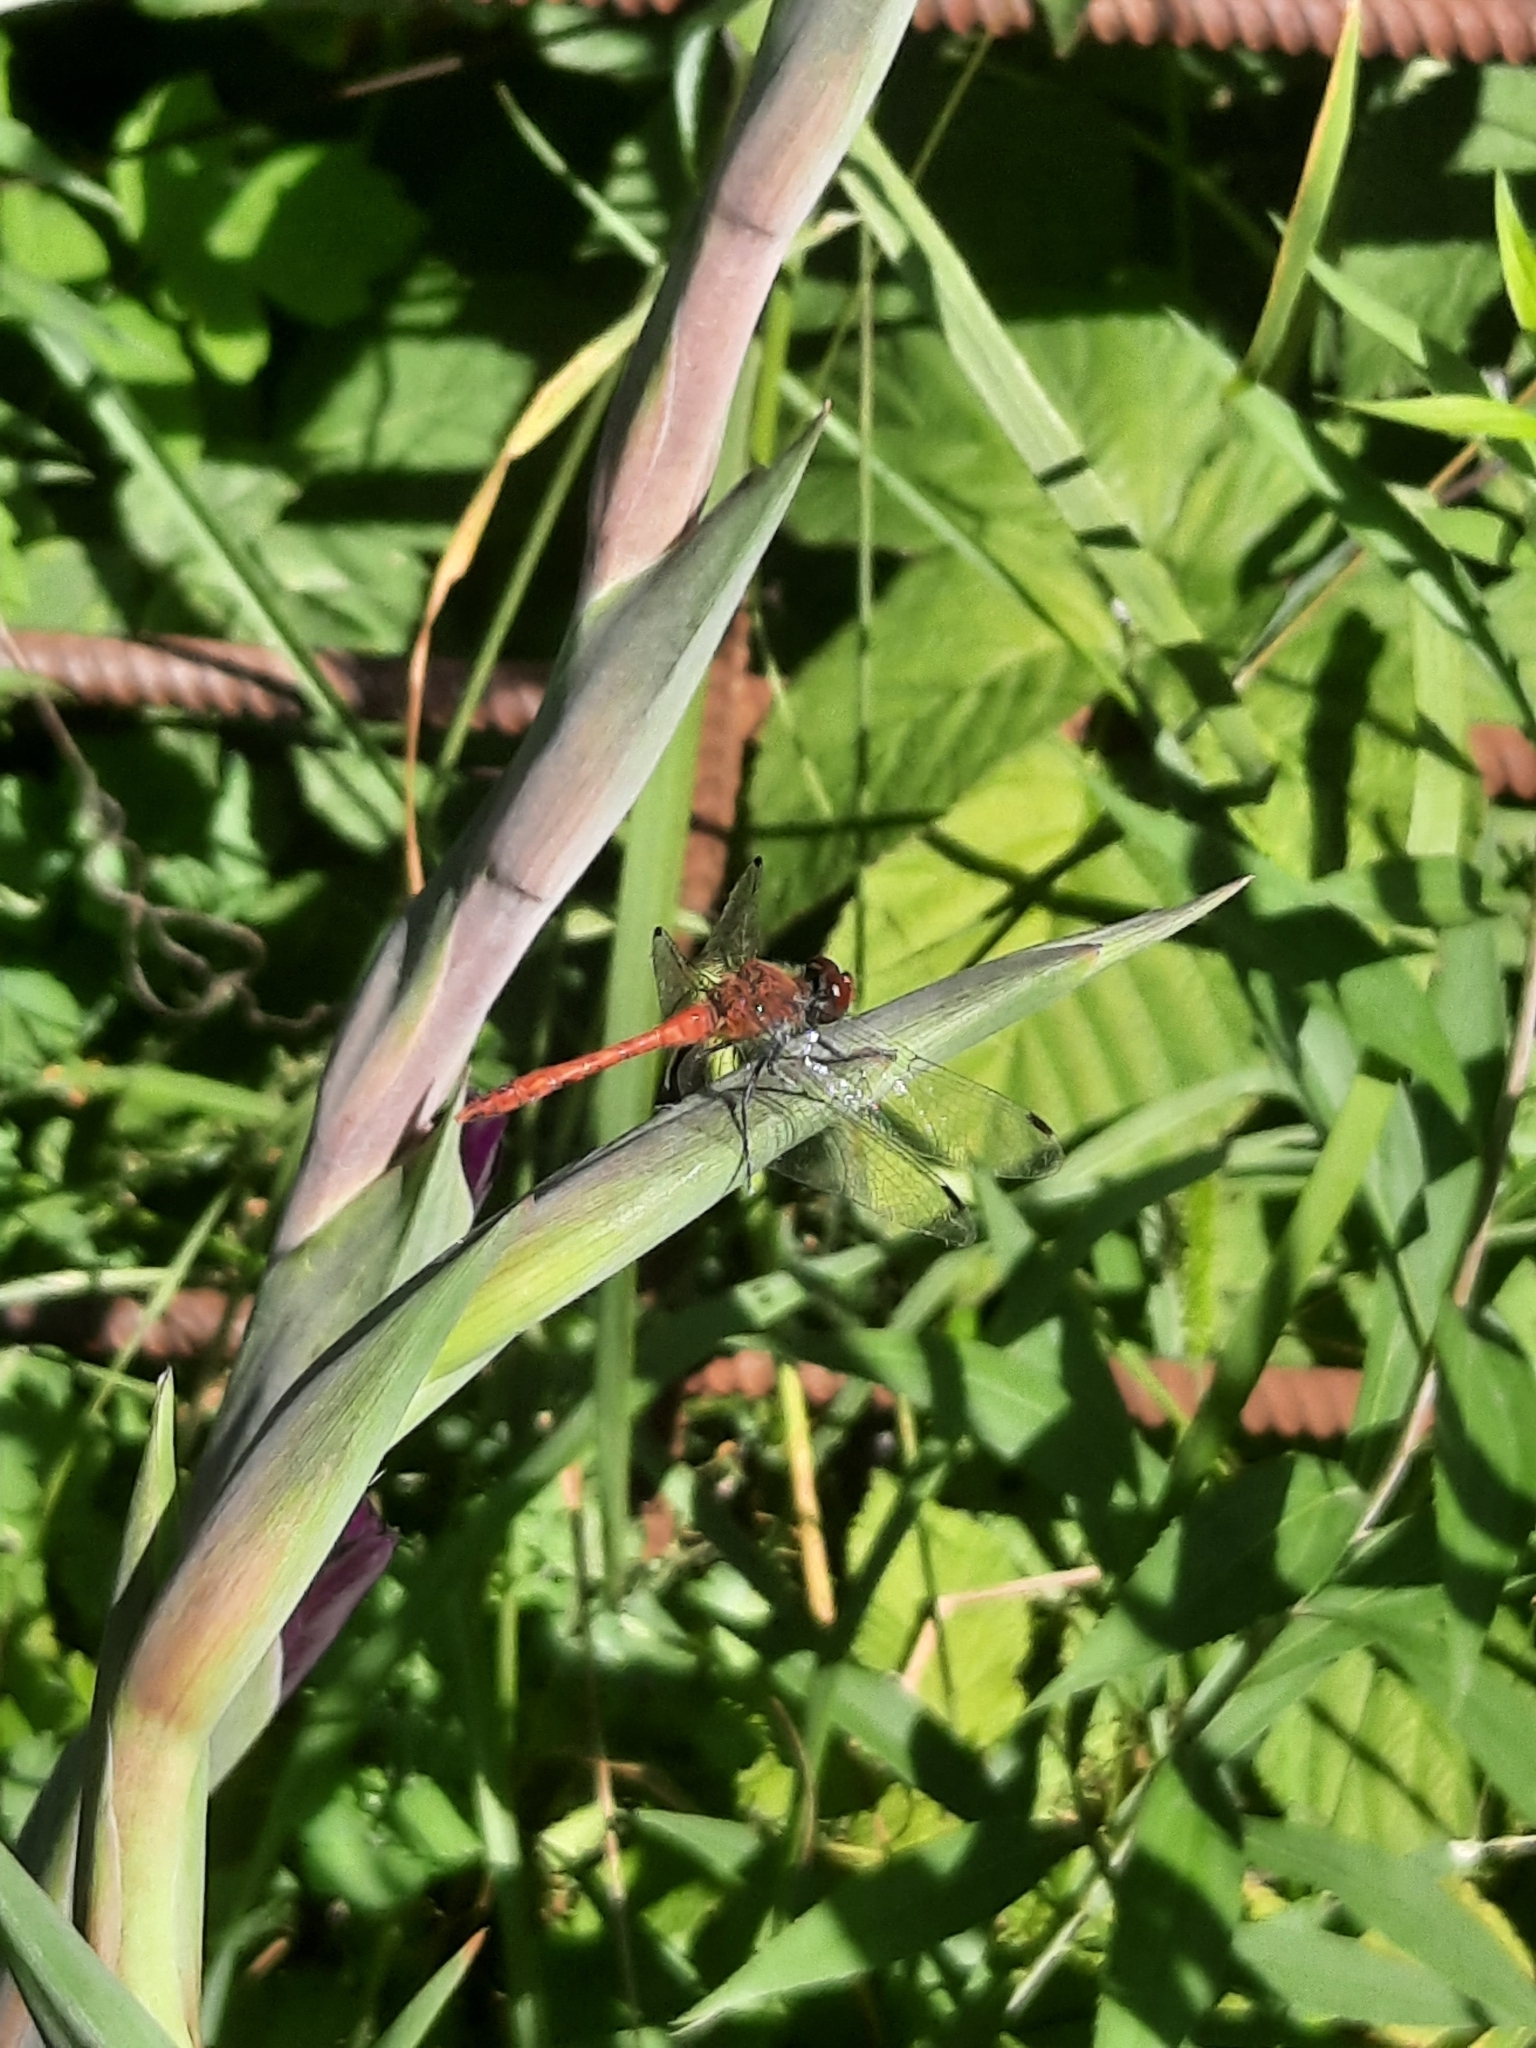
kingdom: Animalia
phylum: Arthropoda
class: Insecta
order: Odonata
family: Libellulidae
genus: Sympetrum
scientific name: Sympetrum sanguineum
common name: Ruddy darter
